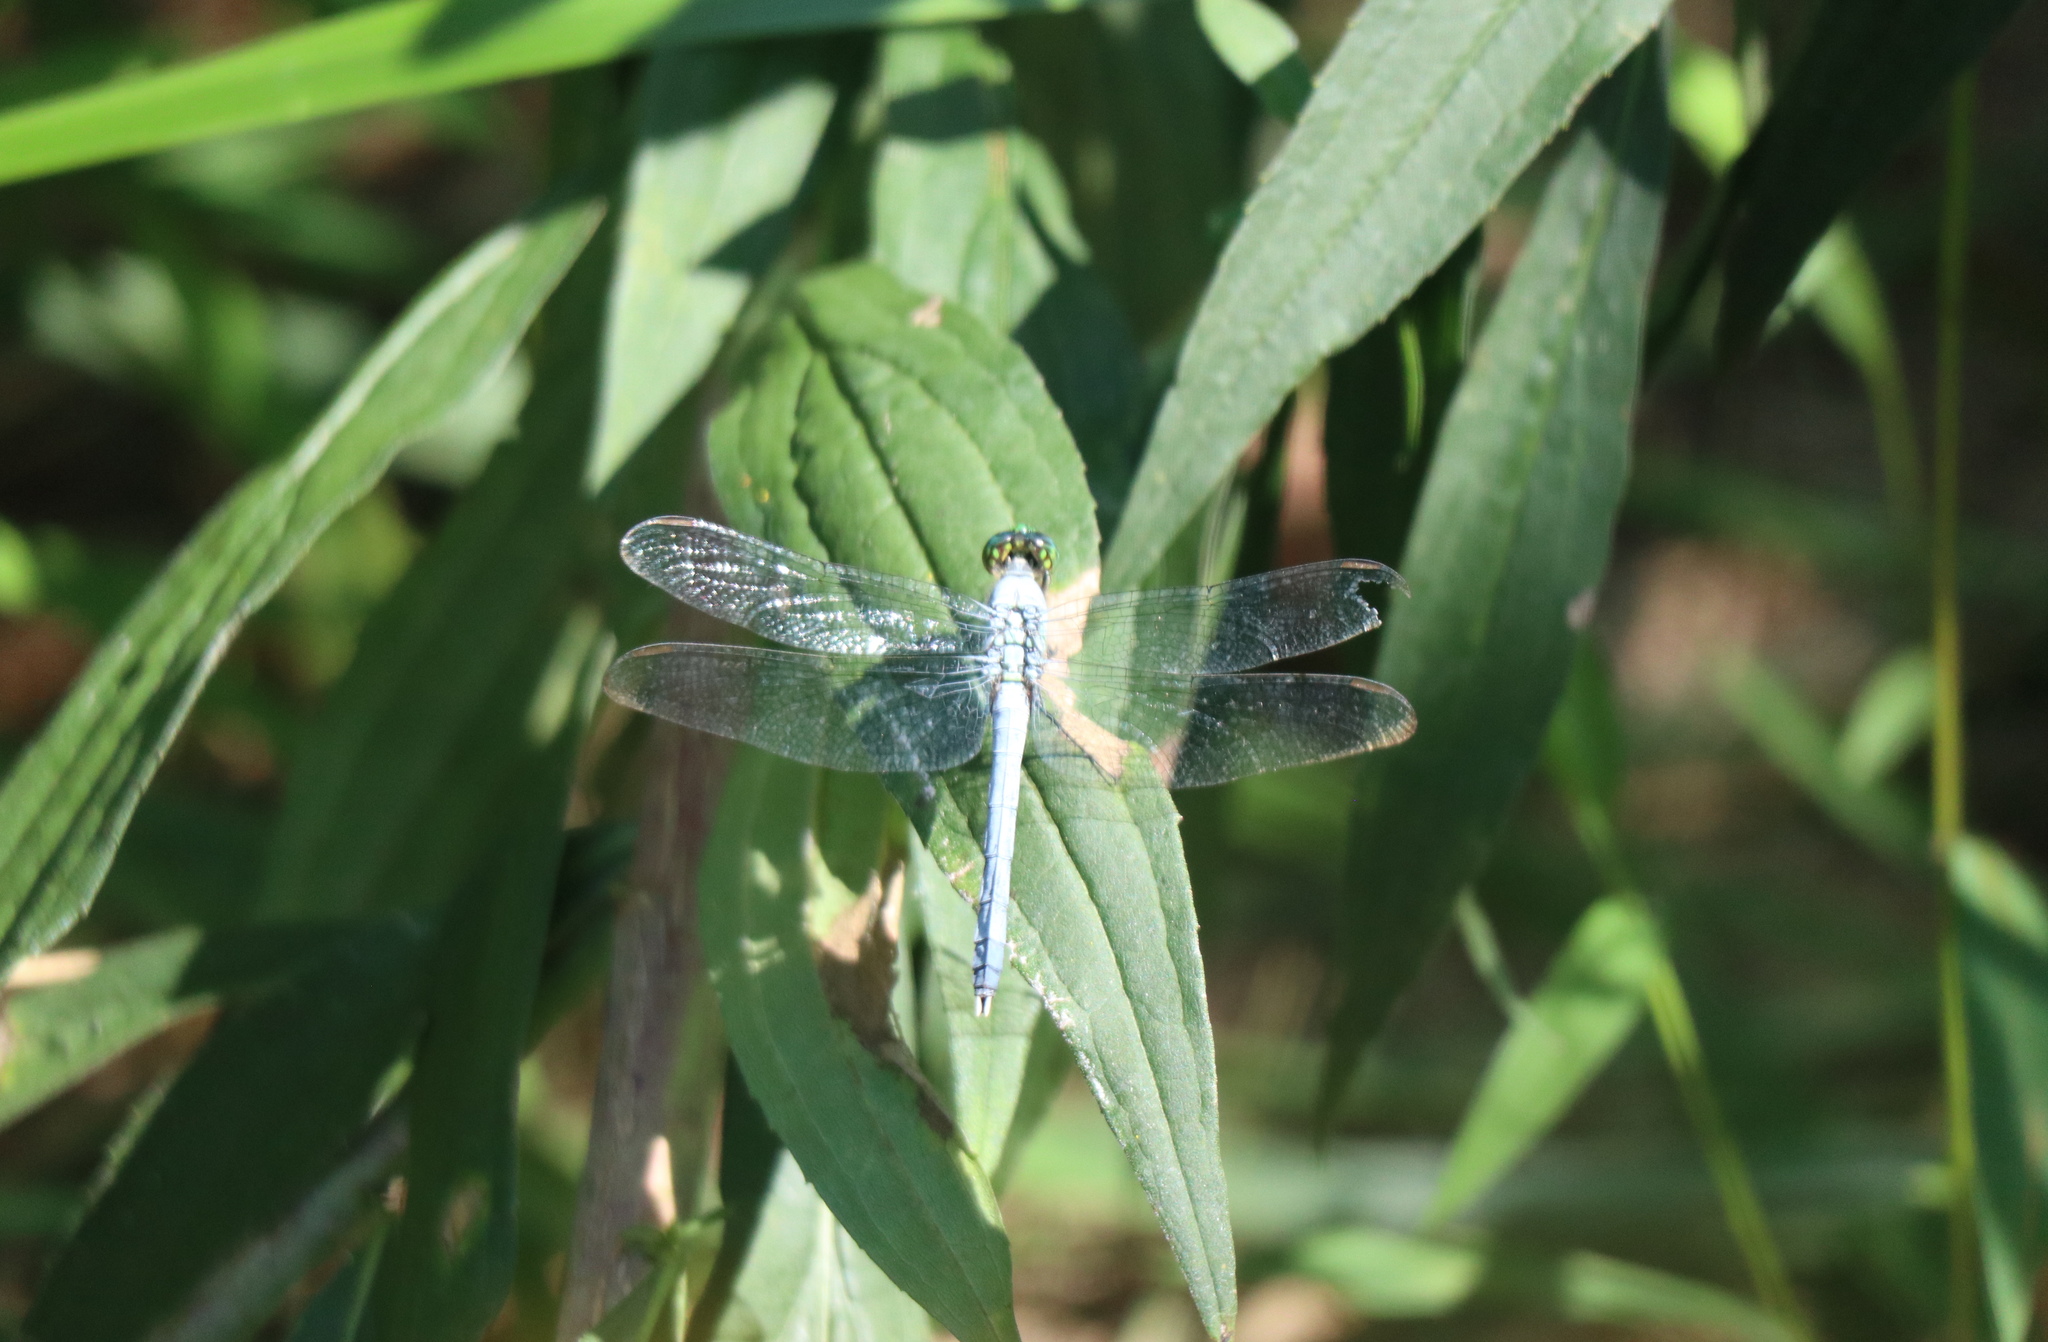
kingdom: Animalia
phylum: Arthropoda
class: Insecta
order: Odonata
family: Libellulidae
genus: Erythemis
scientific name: Erythemis simplicicollis
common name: Eastern pondhawk
